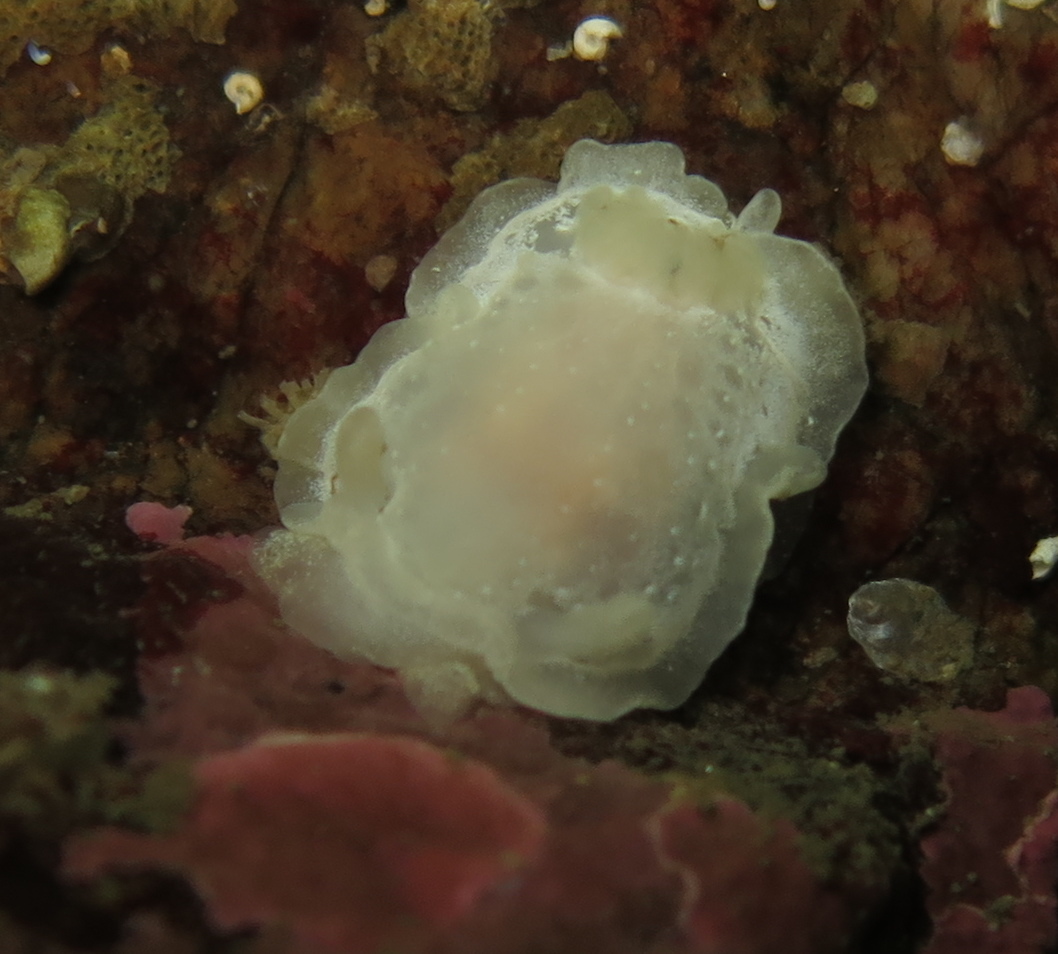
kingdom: Animalia
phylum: Mollusca
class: Gastropoda
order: Nudibranchia
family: Goniodorididae
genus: Okenia
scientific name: Okenia
